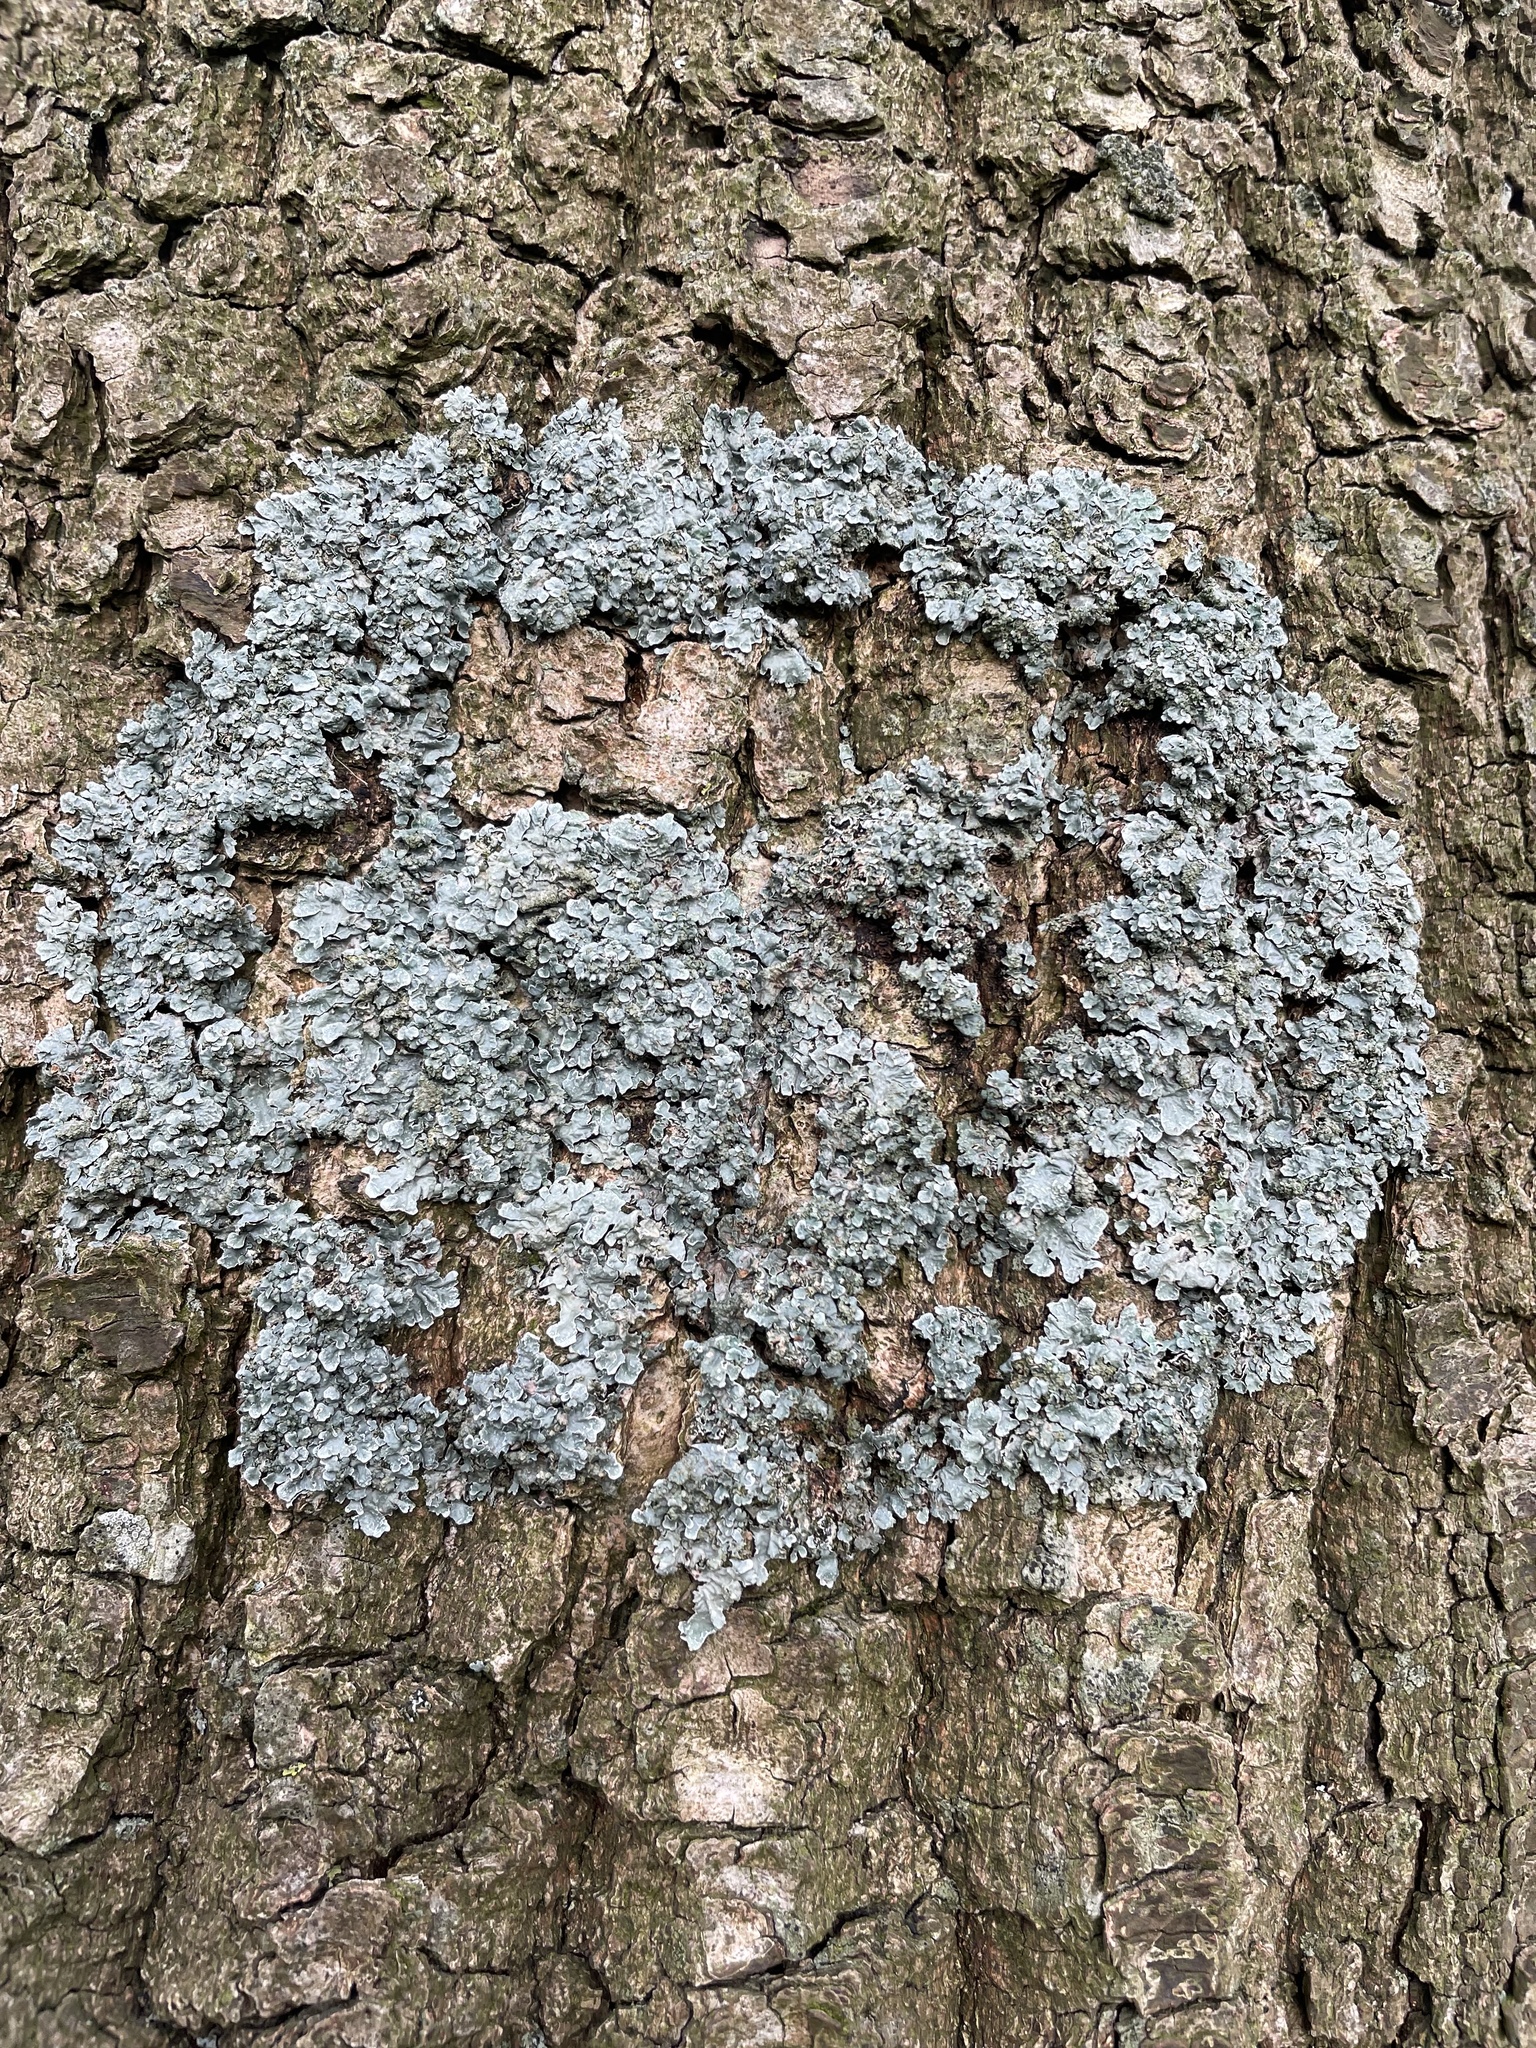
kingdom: Fungi
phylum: Ascomycota
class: Lecanoromycetes
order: Lecanorales
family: Parmeliaceae
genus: Parmelia
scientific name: Parmelia sulcata
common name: Netted shield lichen
